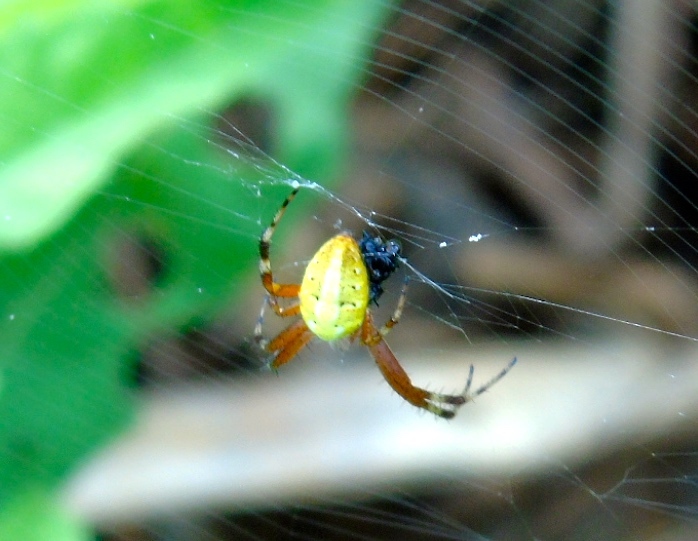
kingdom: Animalia
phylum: Arthropoda
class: Arachnida
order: Araneae
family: Araneidae
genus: Neoscona
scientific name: Neoscona
